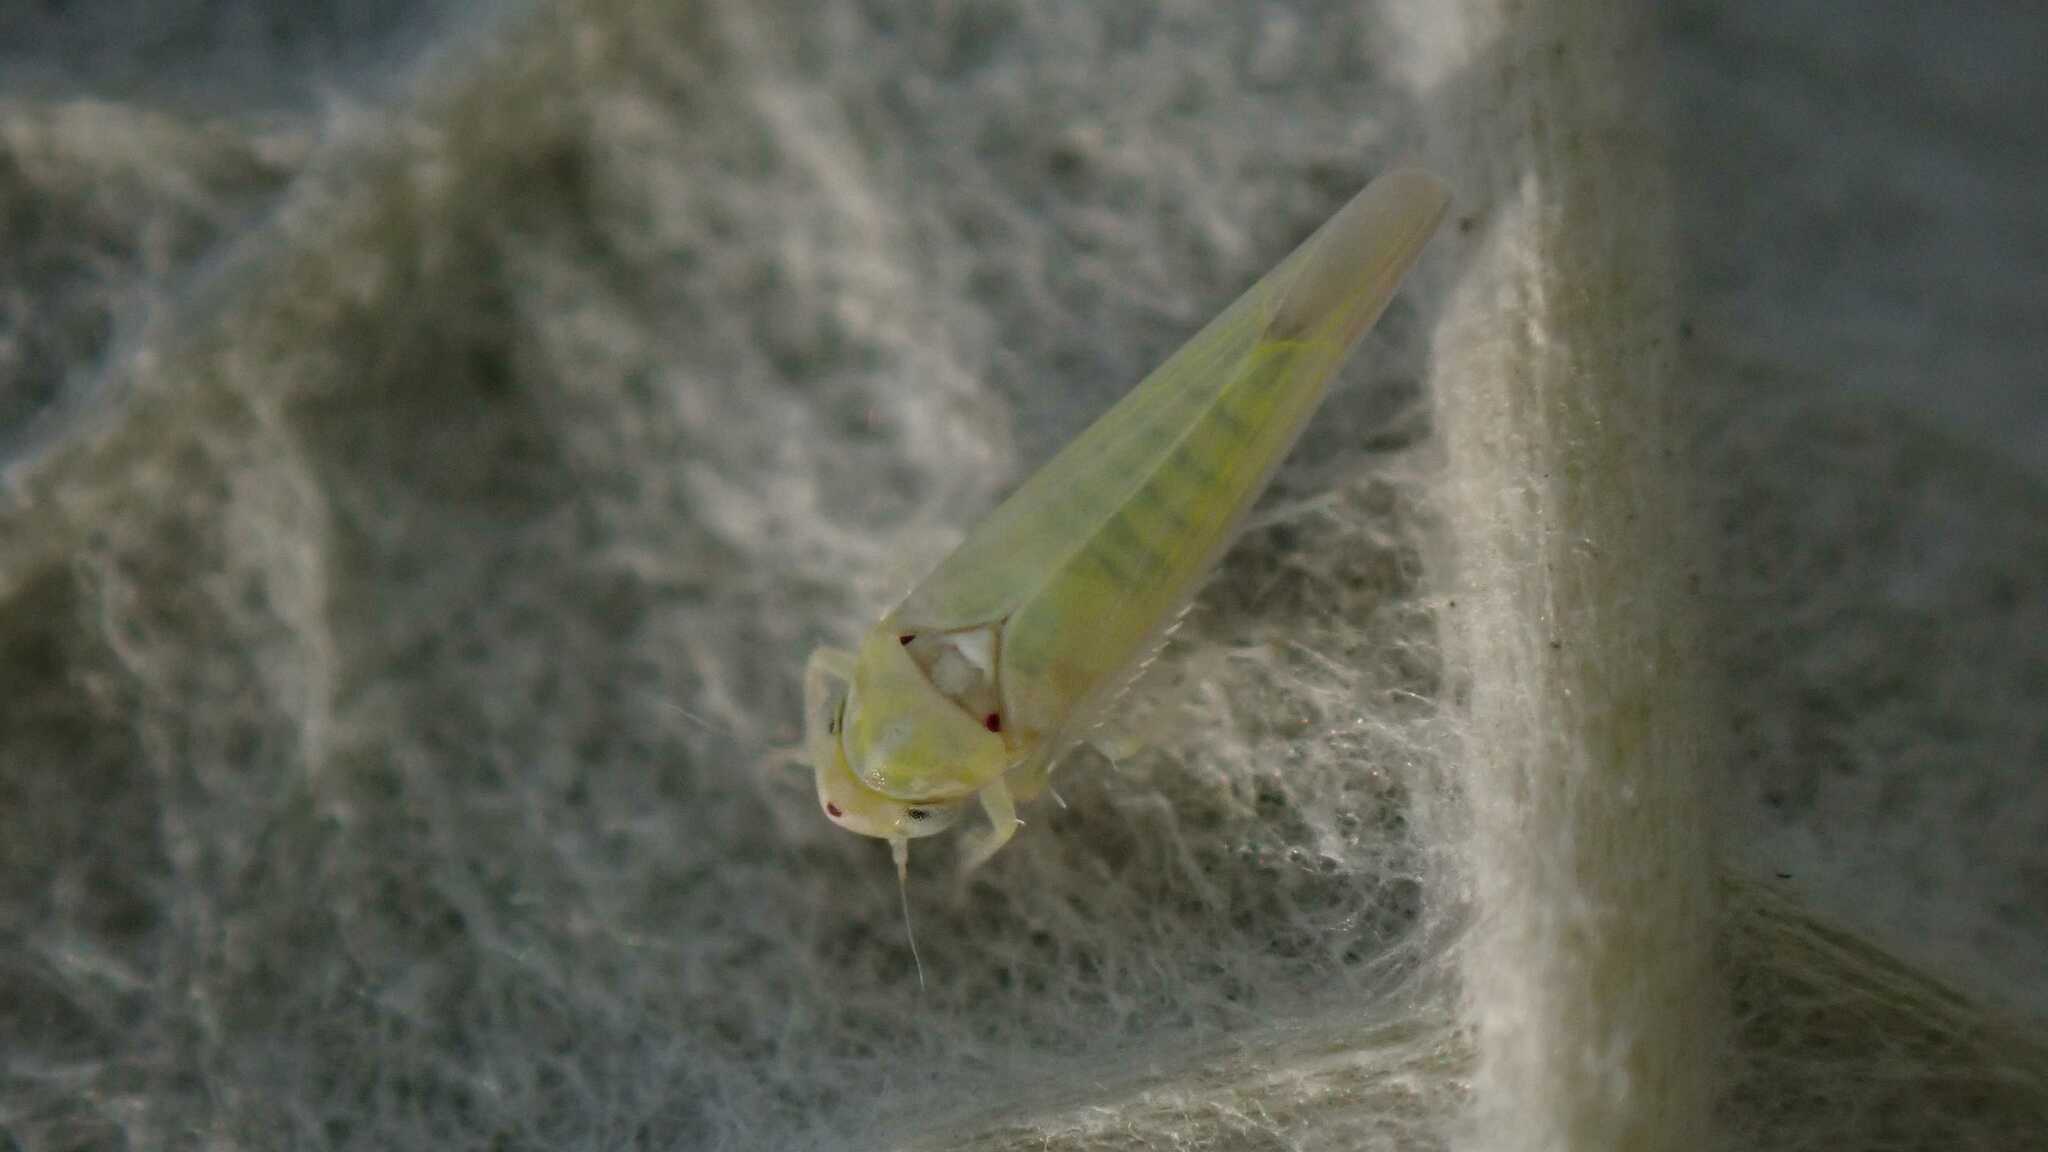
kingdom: Animalia
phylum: Arthropoda
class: Insecta
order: Hemiptera
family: Cicadellidae
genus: Zygina
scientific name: Zygina nivea
